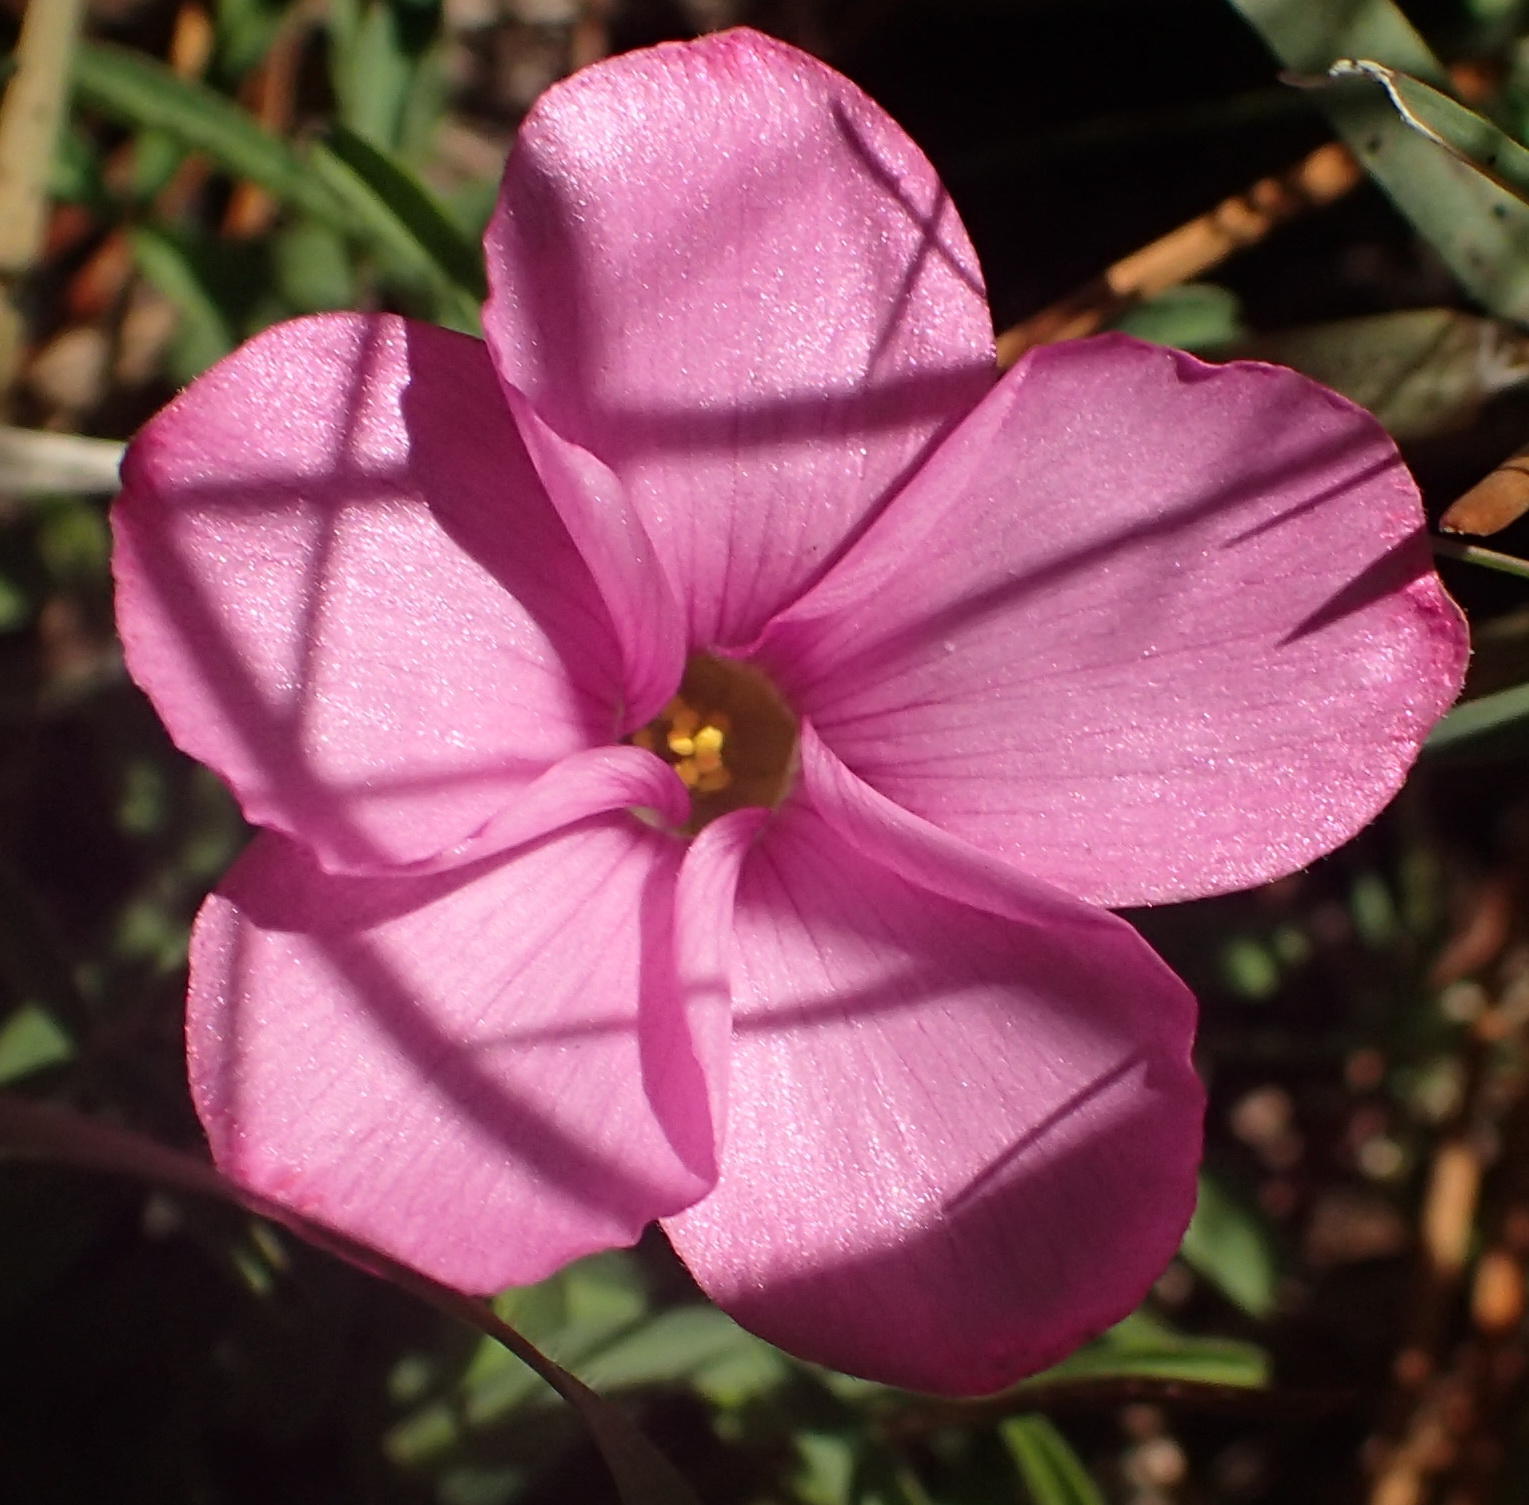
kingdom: Plantae
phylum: Tracheophyta
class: Magnoliopsida
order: Oxalidales
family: Oxalidaceae
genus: Oxalis
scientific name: Oxalis ciliaris
